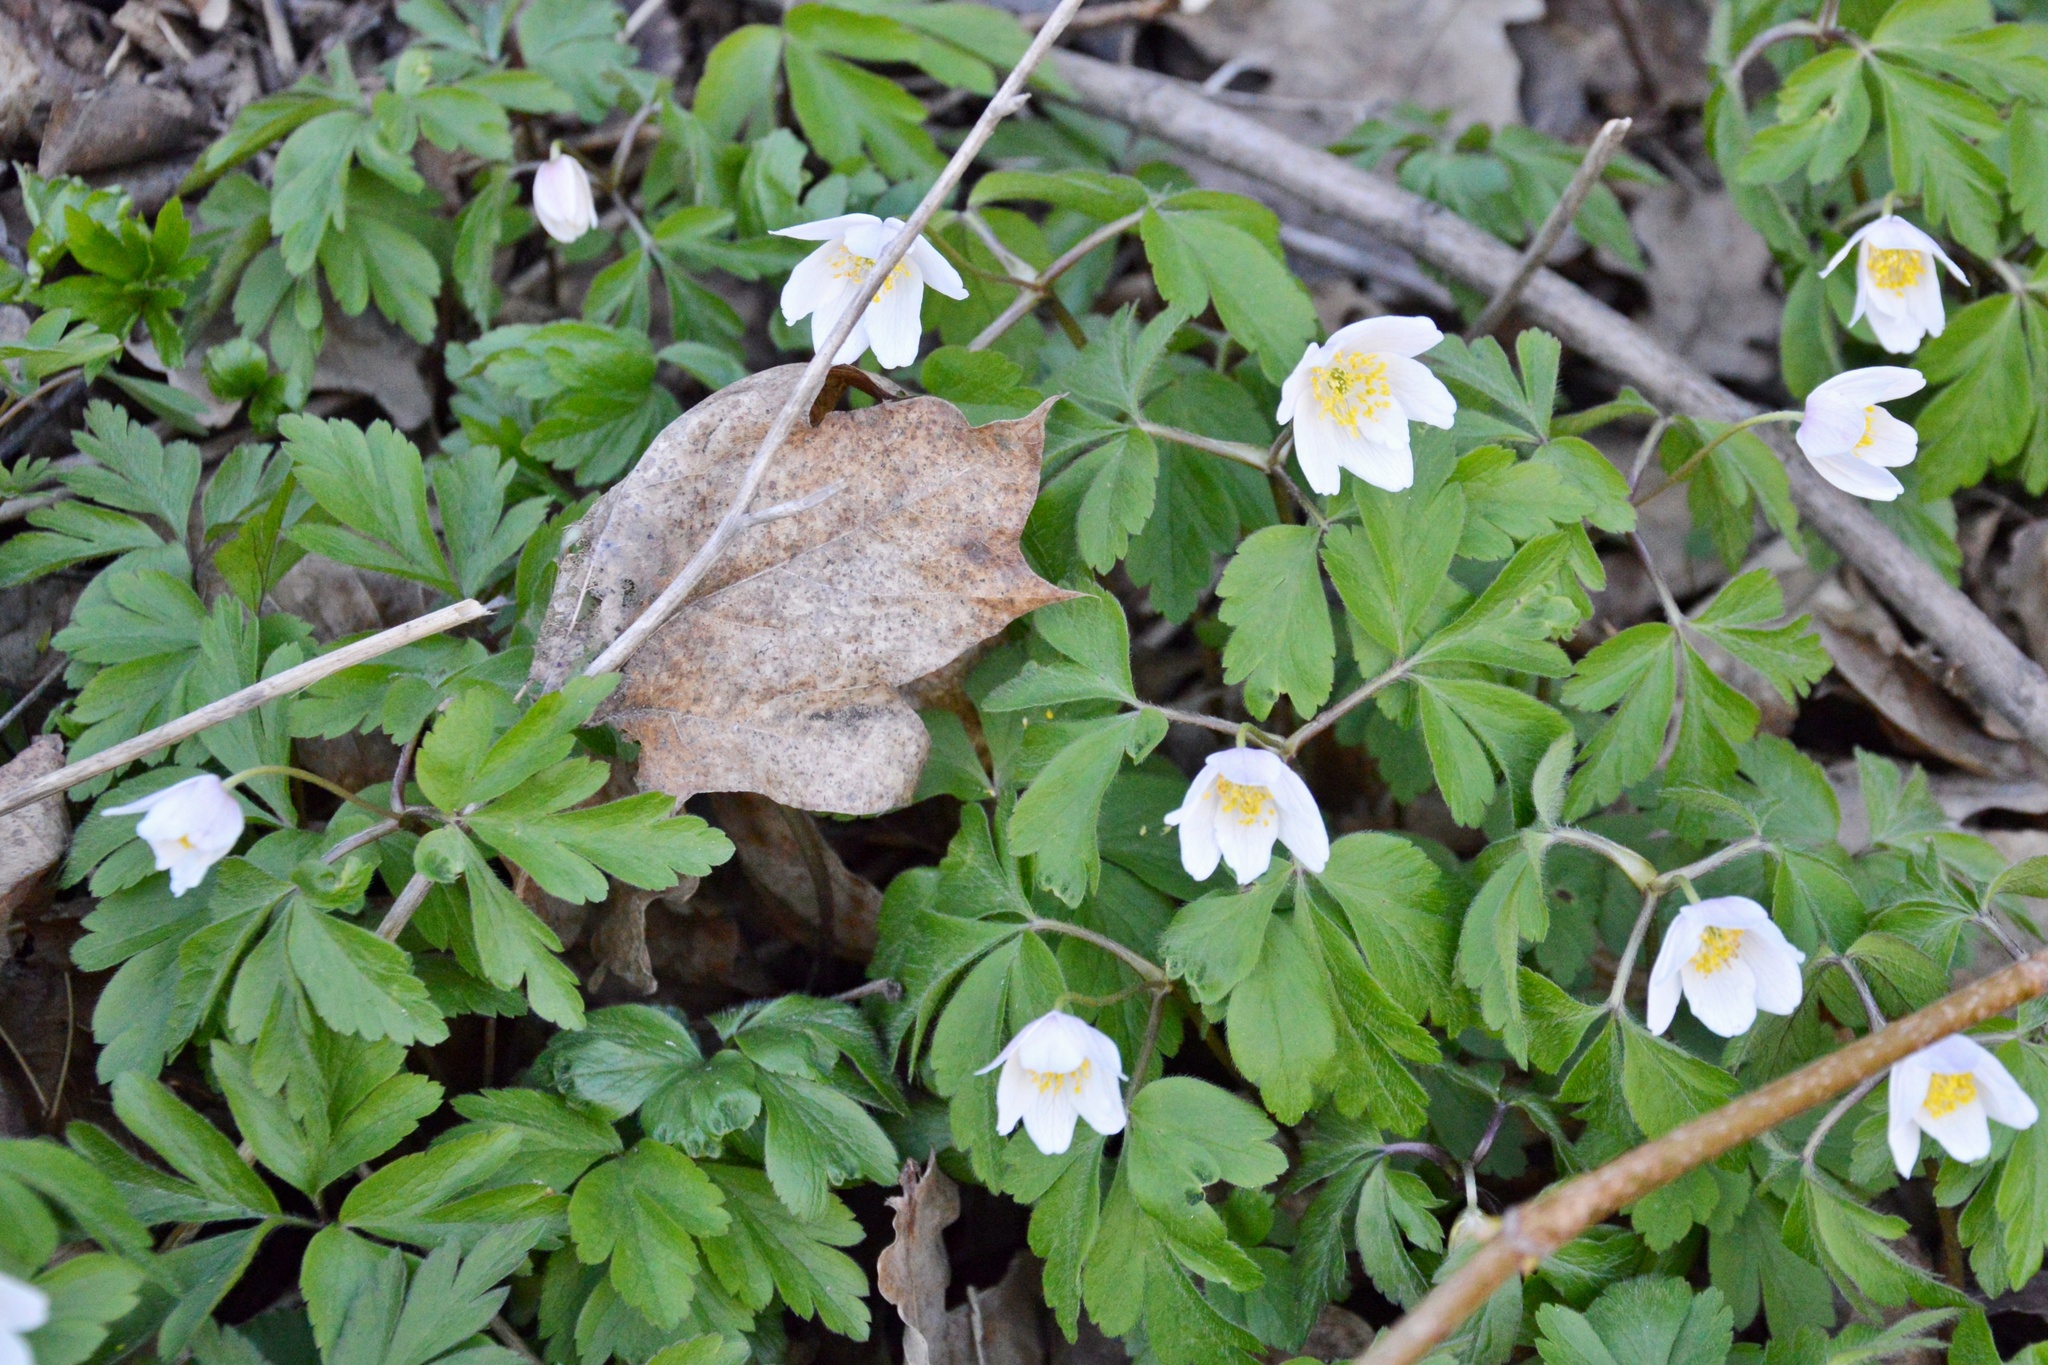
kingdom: Plantae
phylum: Tracheophyta
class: Magnoliopsida
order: Ranunculales
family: Ranunculaceae
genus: Anemone
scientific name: Anemone nemorosa
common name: Wood anemone
